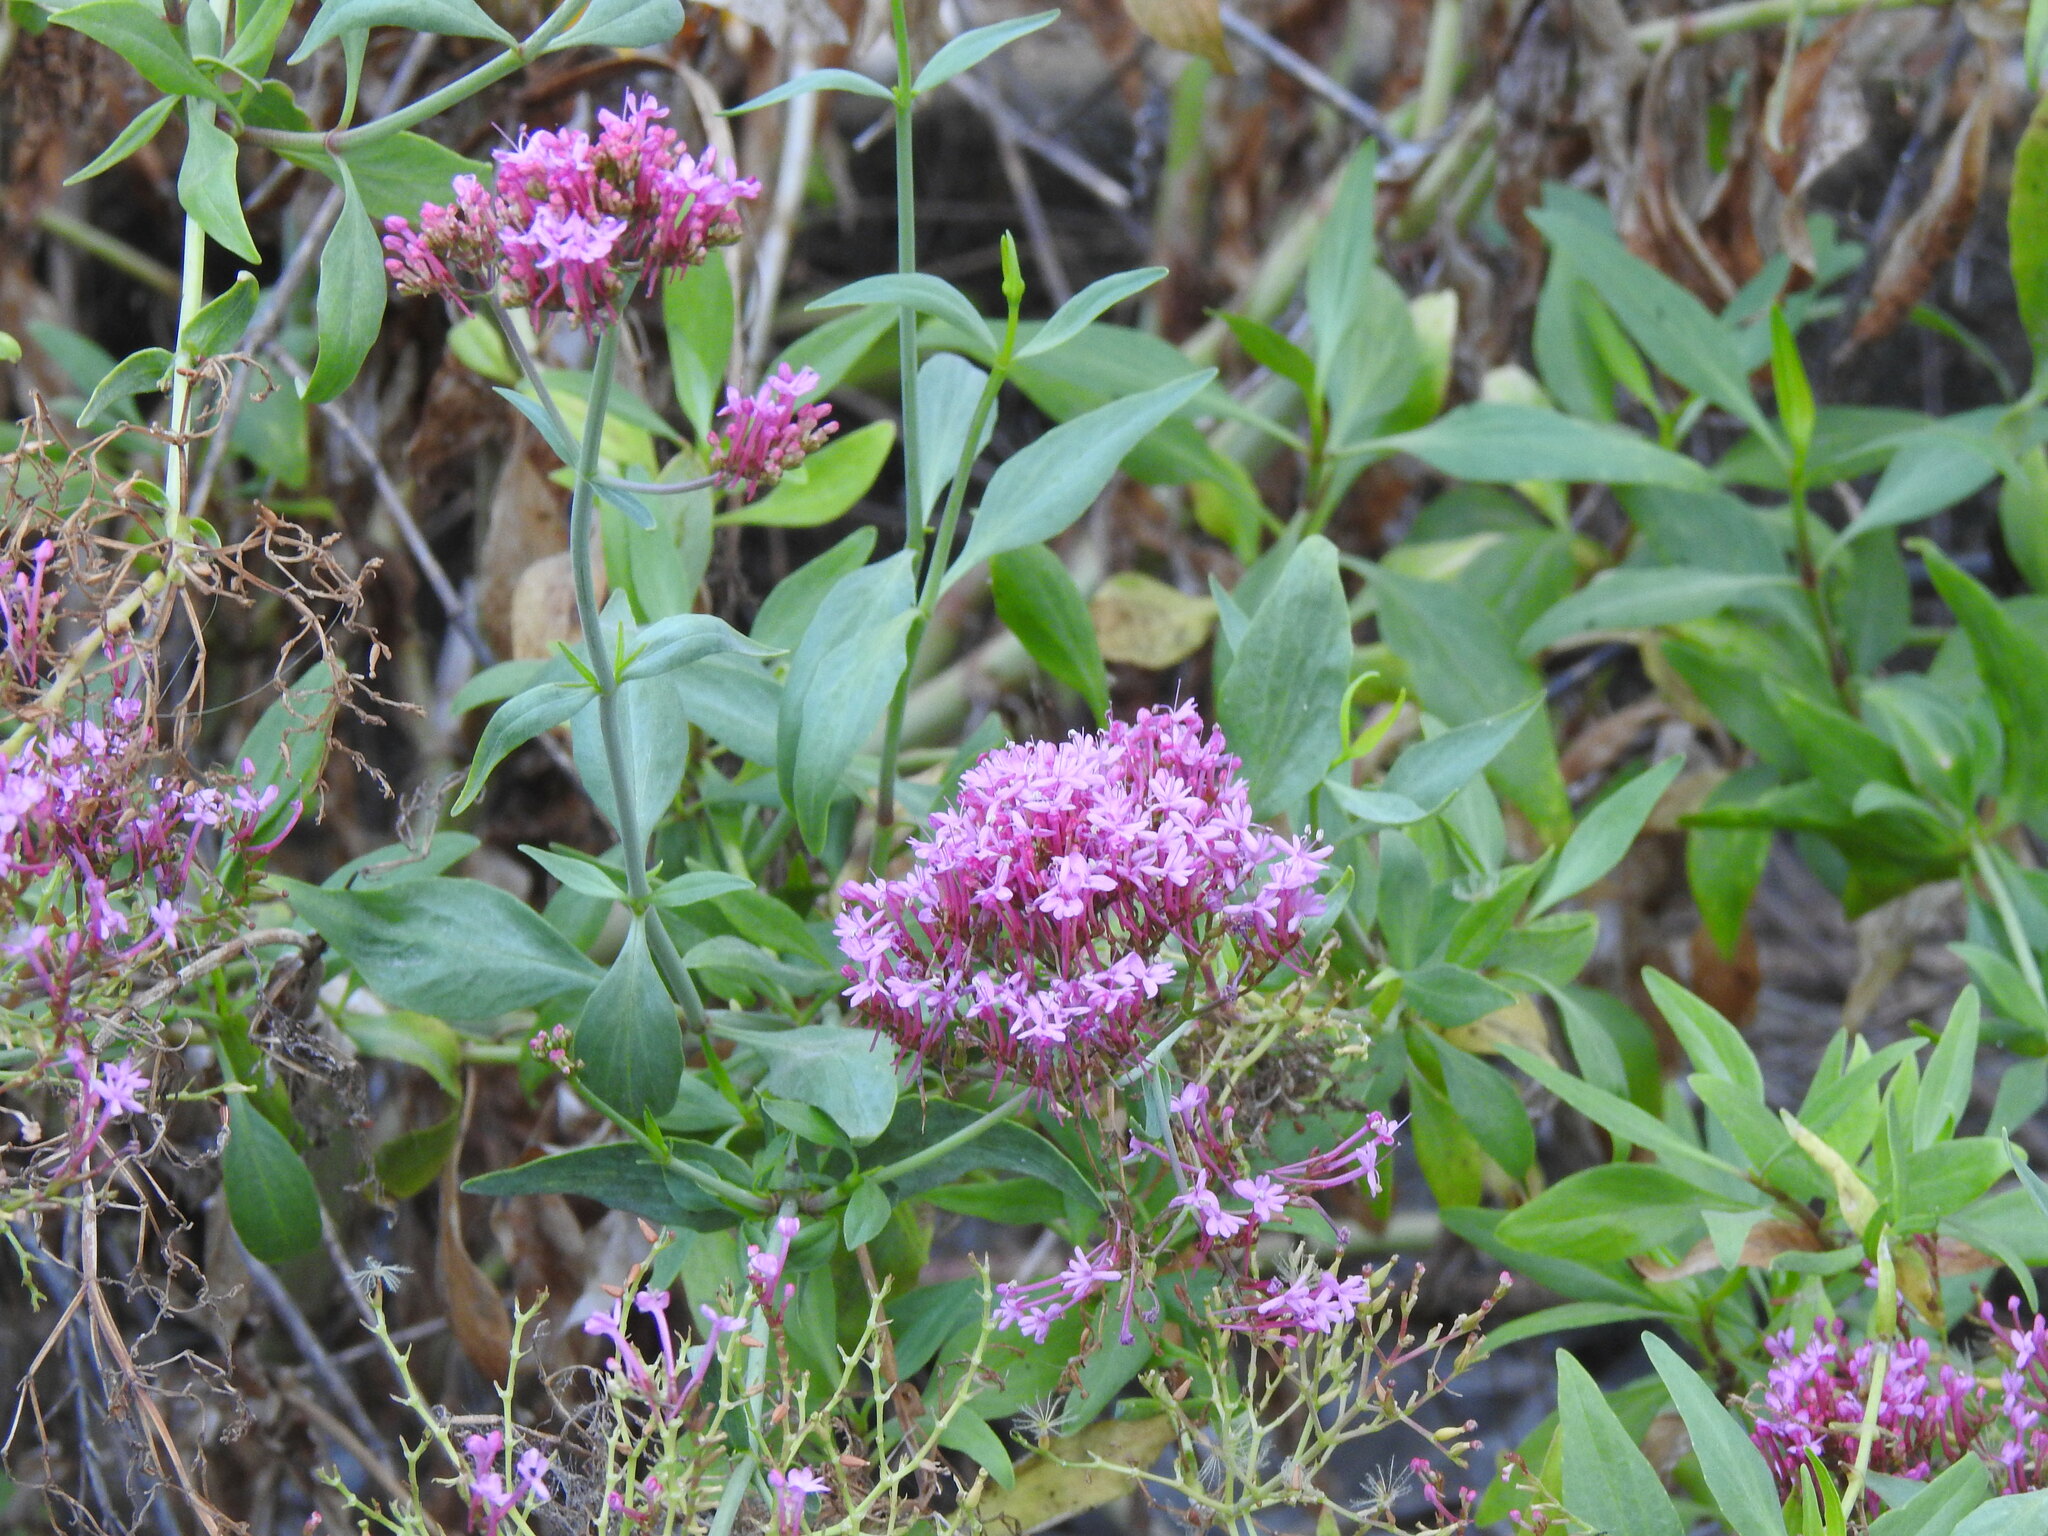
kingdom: Plantae
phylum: Tracheophyta
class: Magnoliopsida
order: Dipsacales
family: Caprifoliaceae
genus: Centranthus
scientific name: Centranthus ruber
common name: Red valerian
